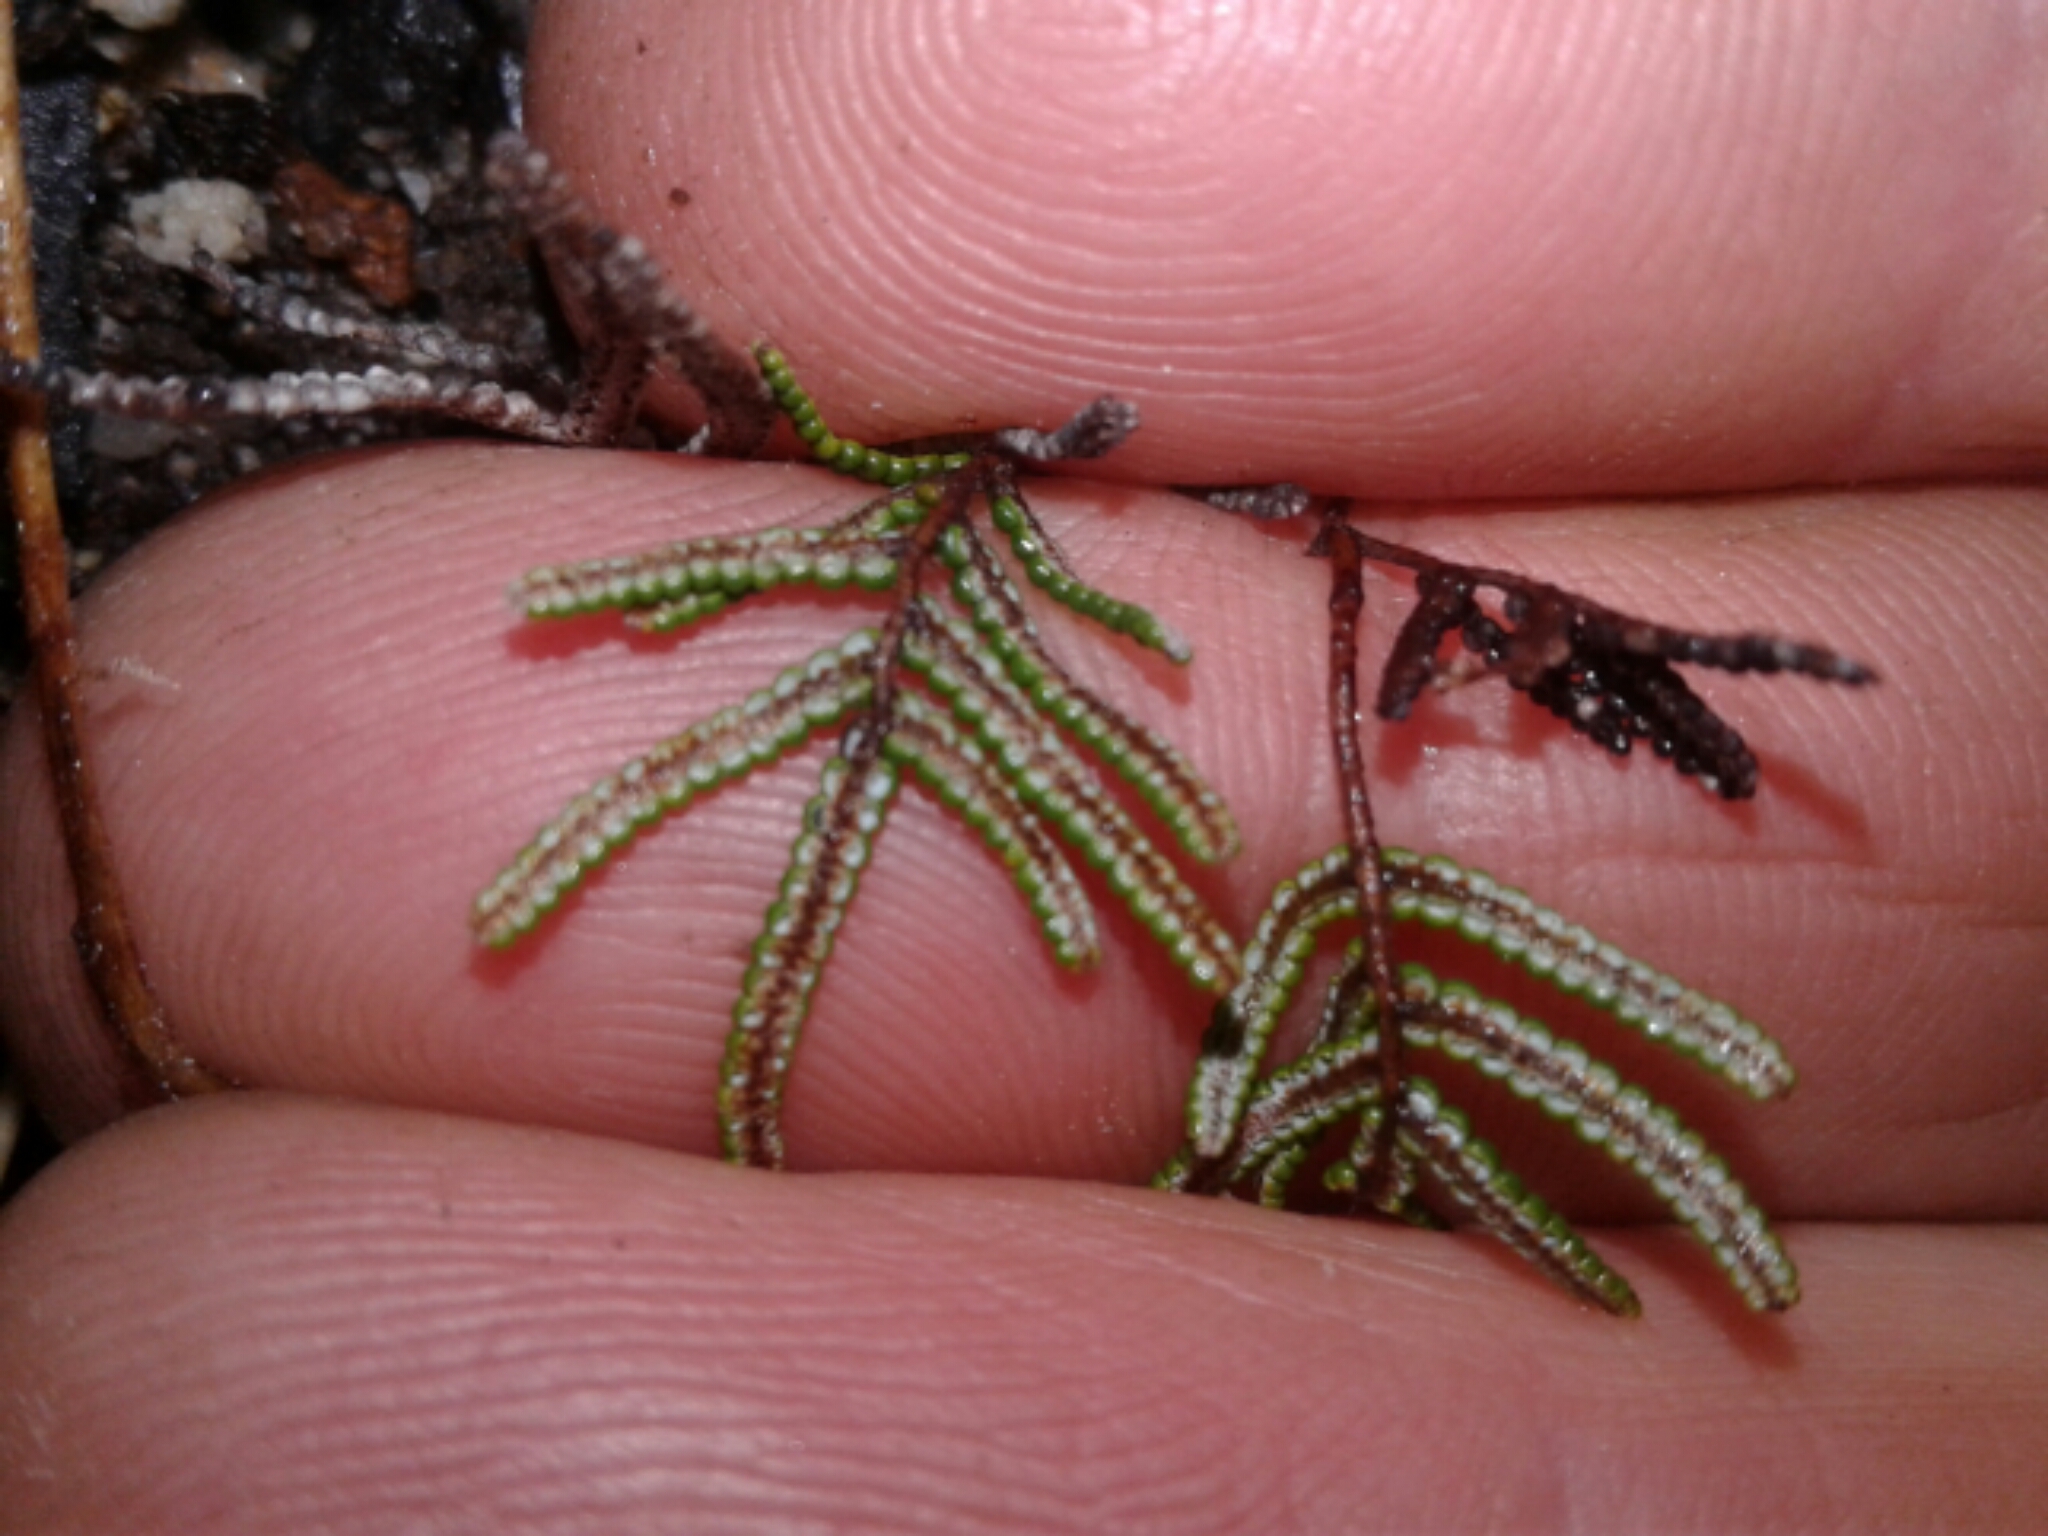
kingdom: Plantae
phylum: Tracheophyta
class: Polypodiopsida
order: Gleicheniales
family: Gleicheniaceae
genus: Gleichenia
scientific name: Gleichenia alpina
